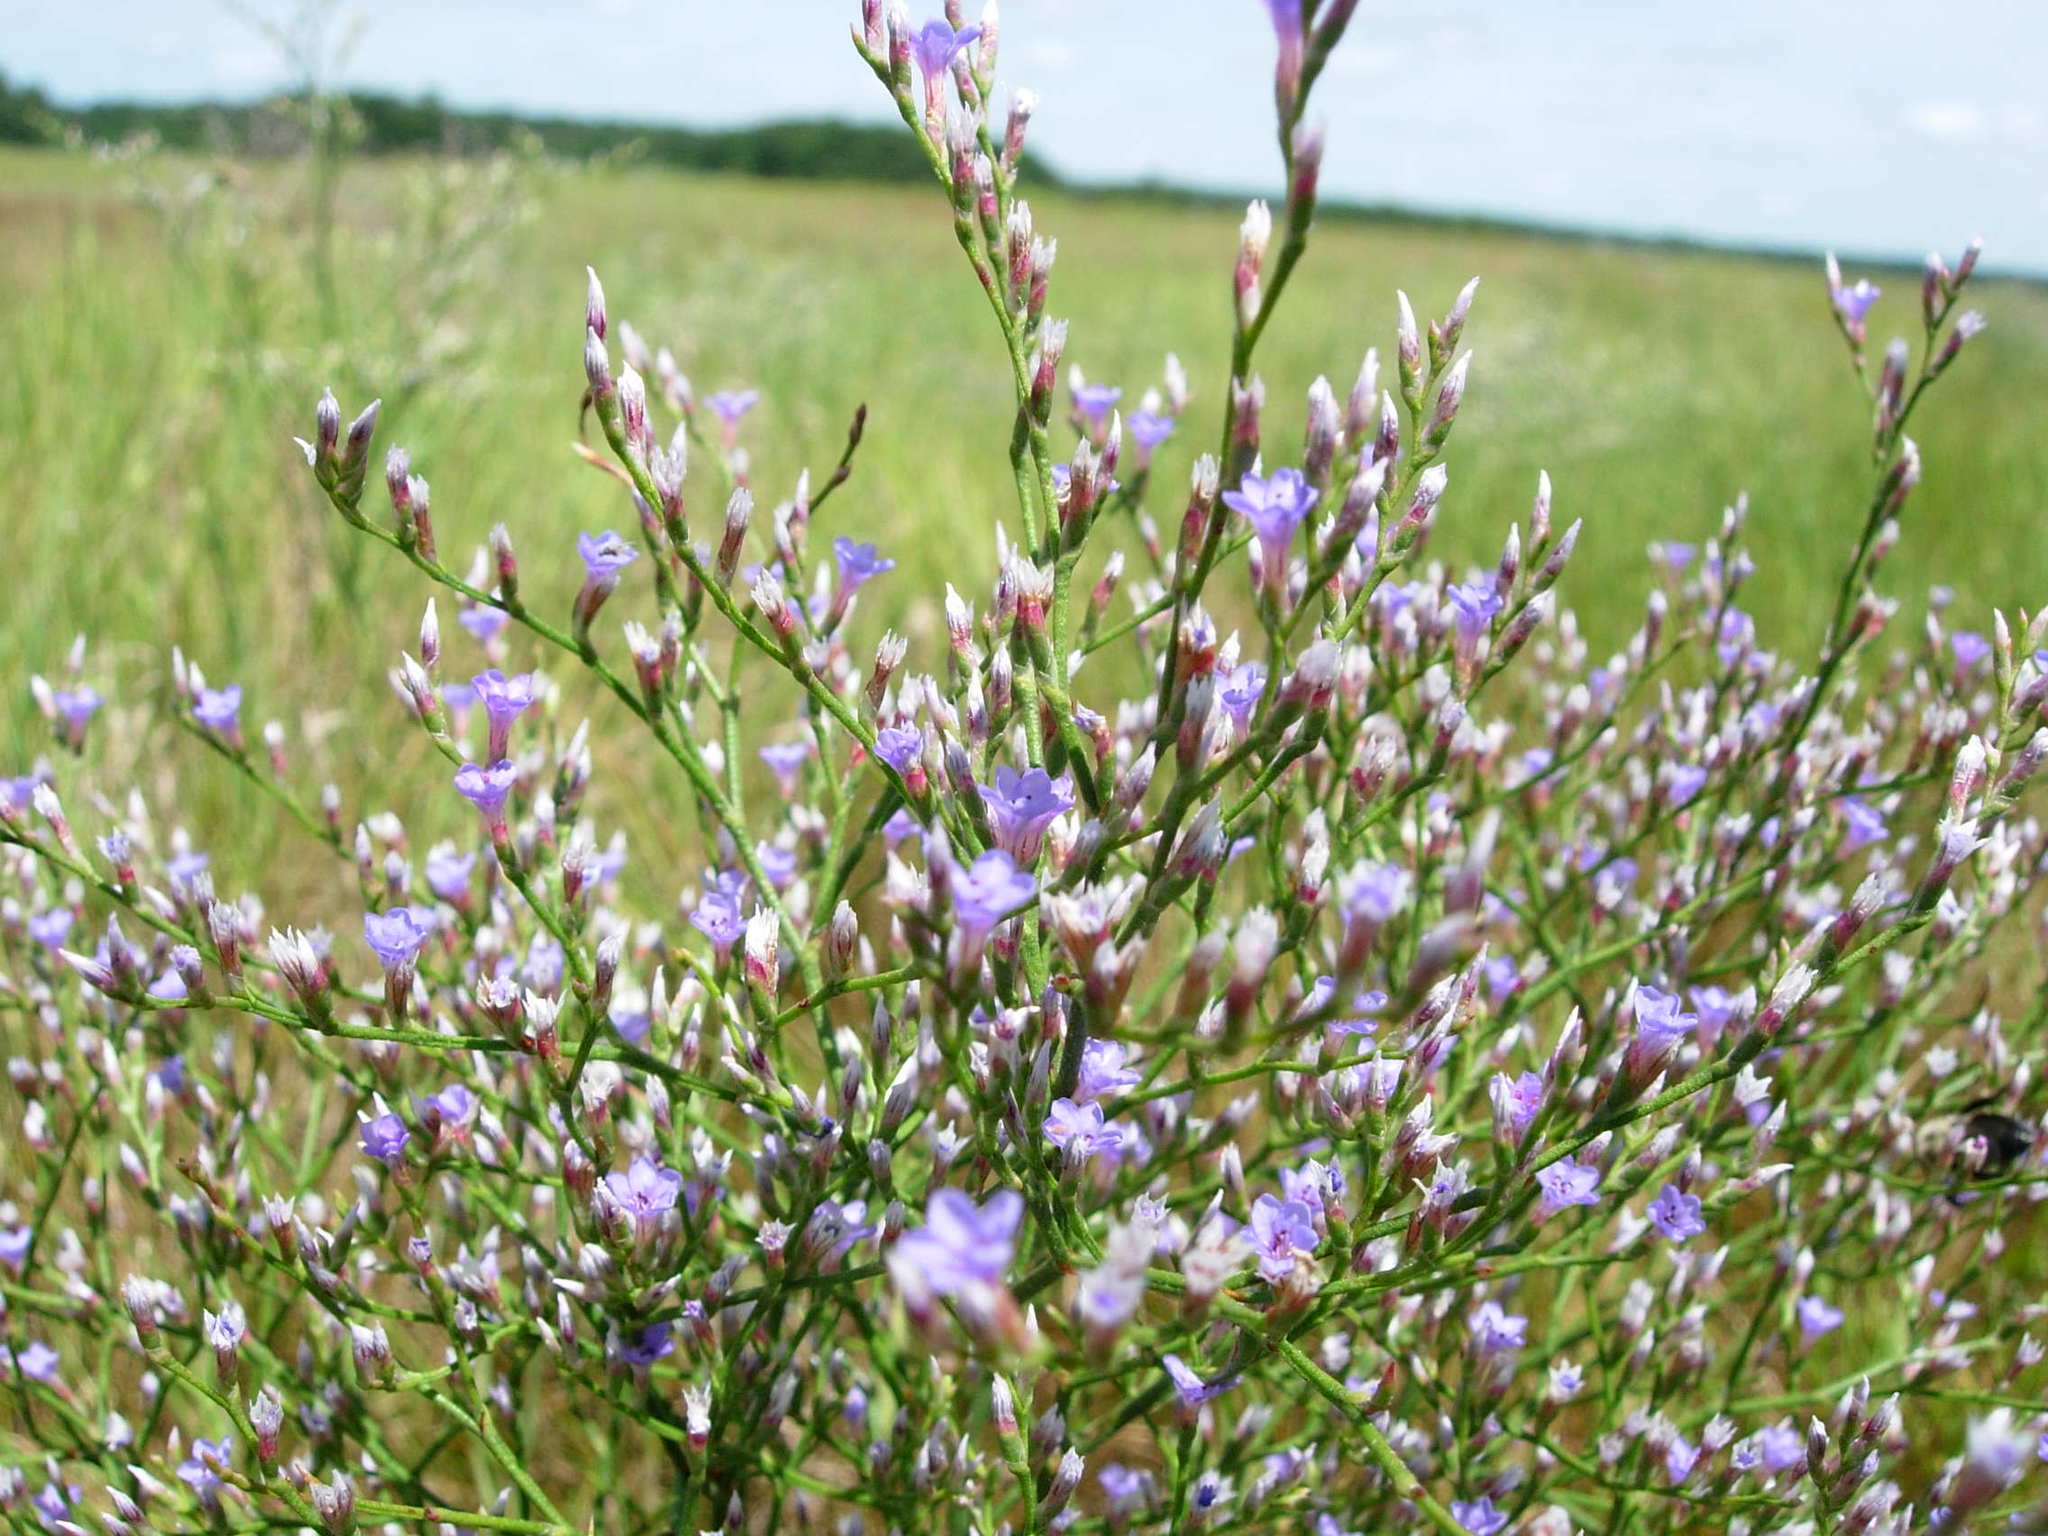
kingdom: Plantae
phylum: Tracheophyta
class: Magnoliopsida
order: Caryophyllales
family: Plumbaginaceae
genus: Limonium
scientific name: Limonium carolinianum
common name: Carolina sea lavender
